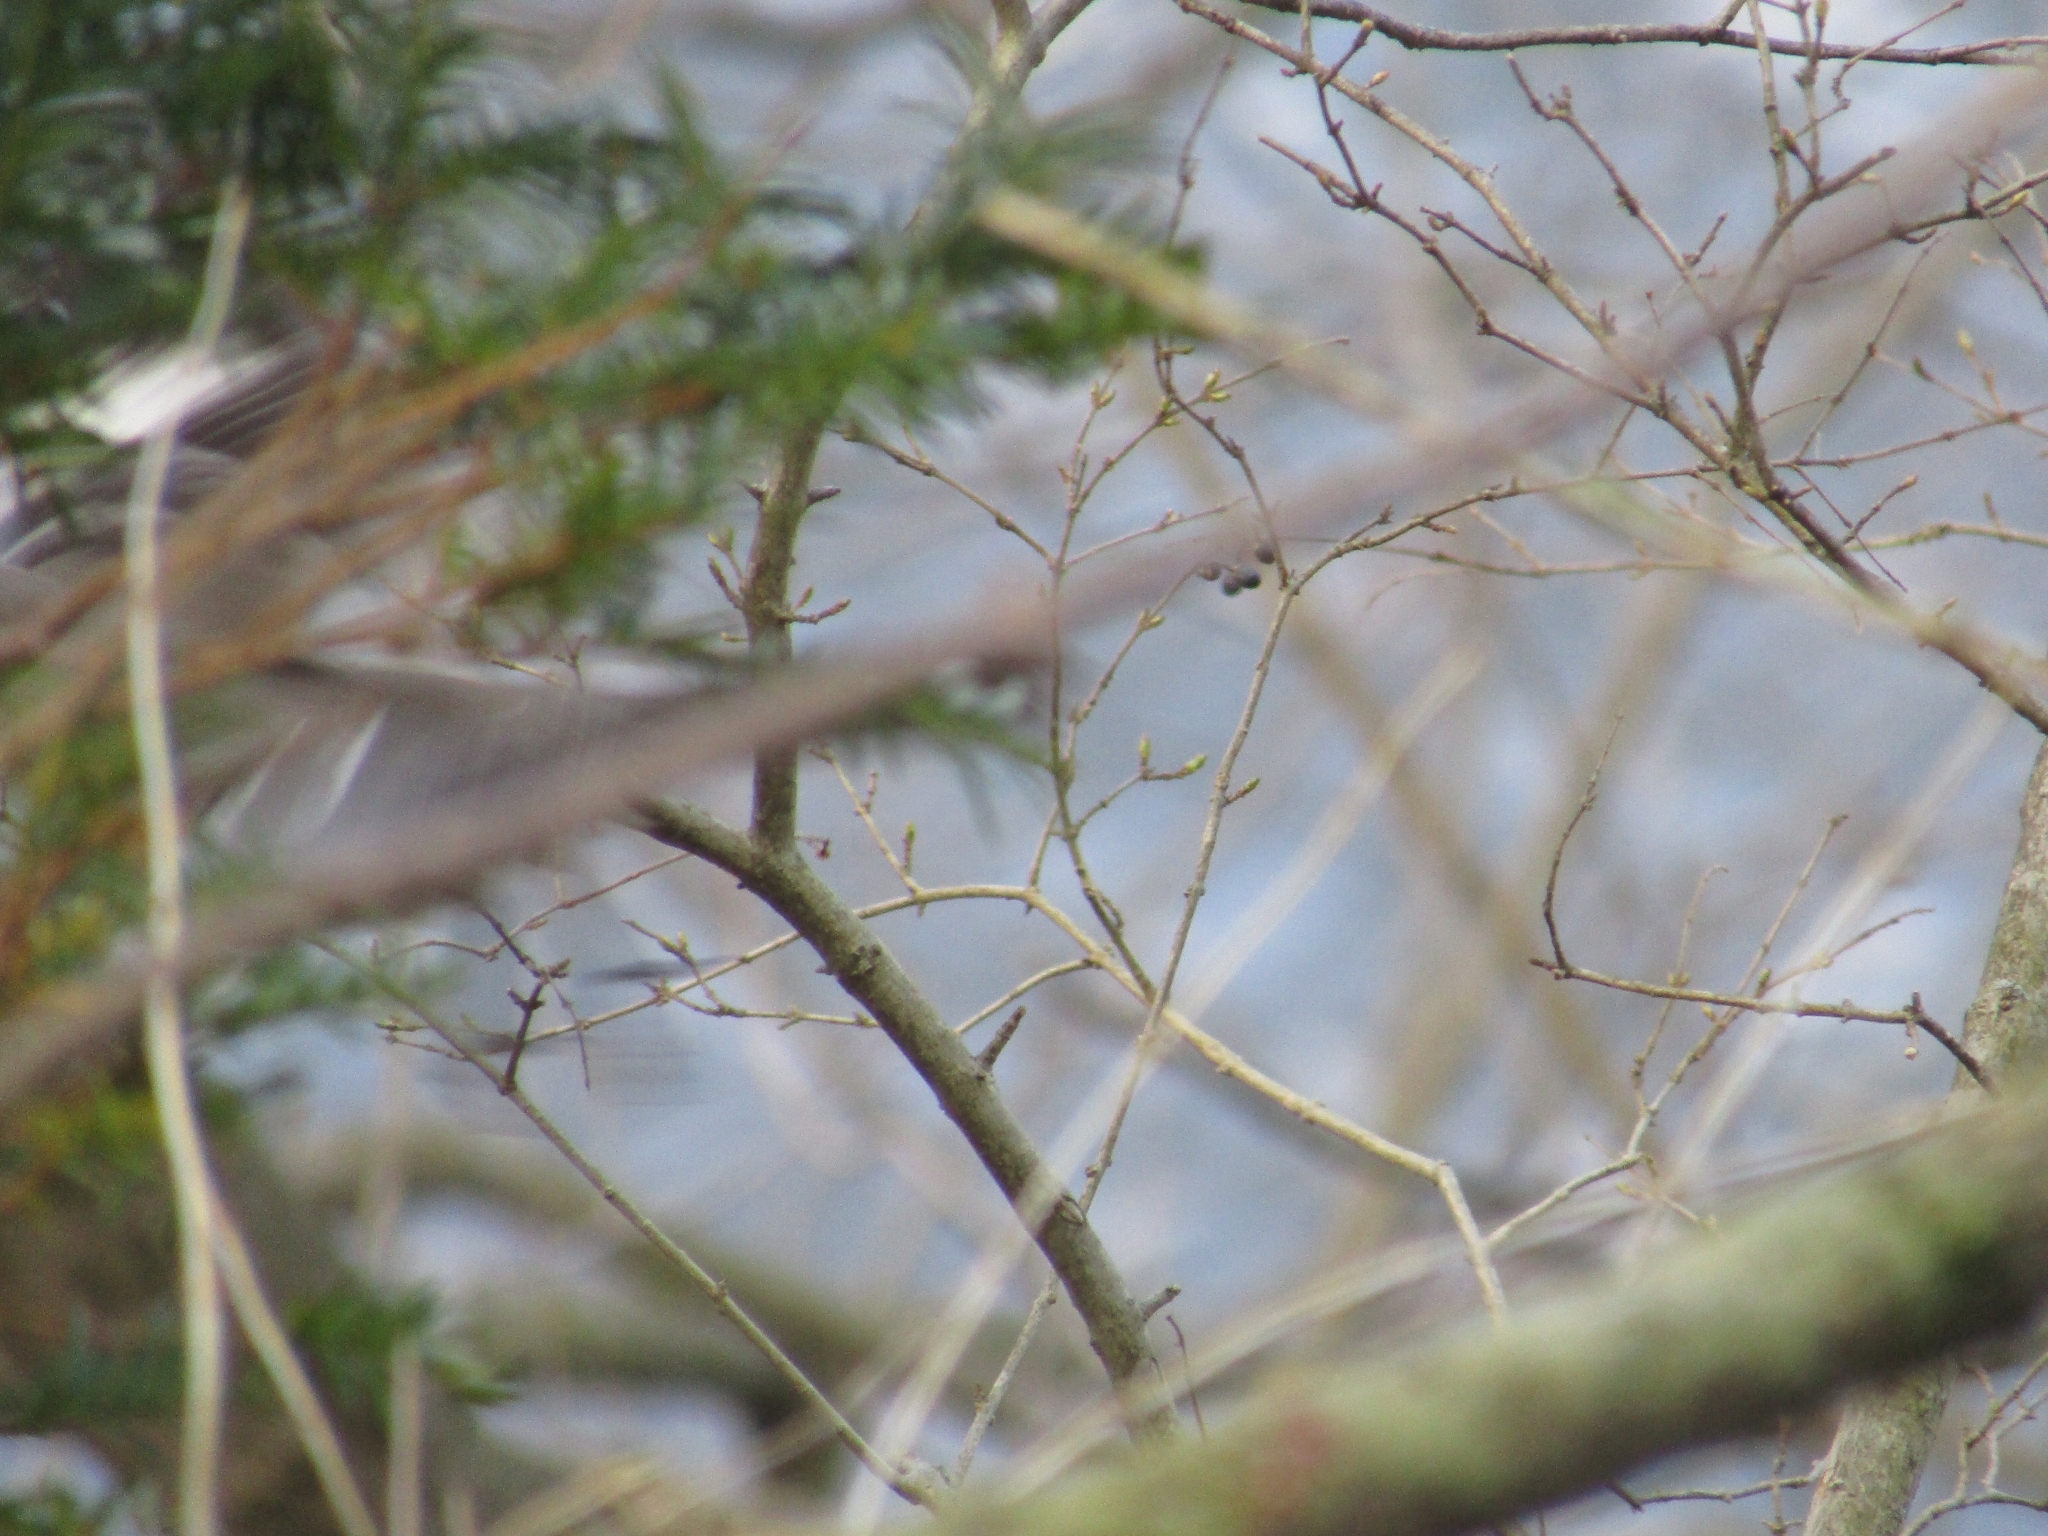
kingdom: Animalia
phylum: Chordata
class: Aves
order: Passeriformes
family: Mimidae
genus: Mimus
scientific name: Mimus polyglottos
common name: Northern mockingbird
